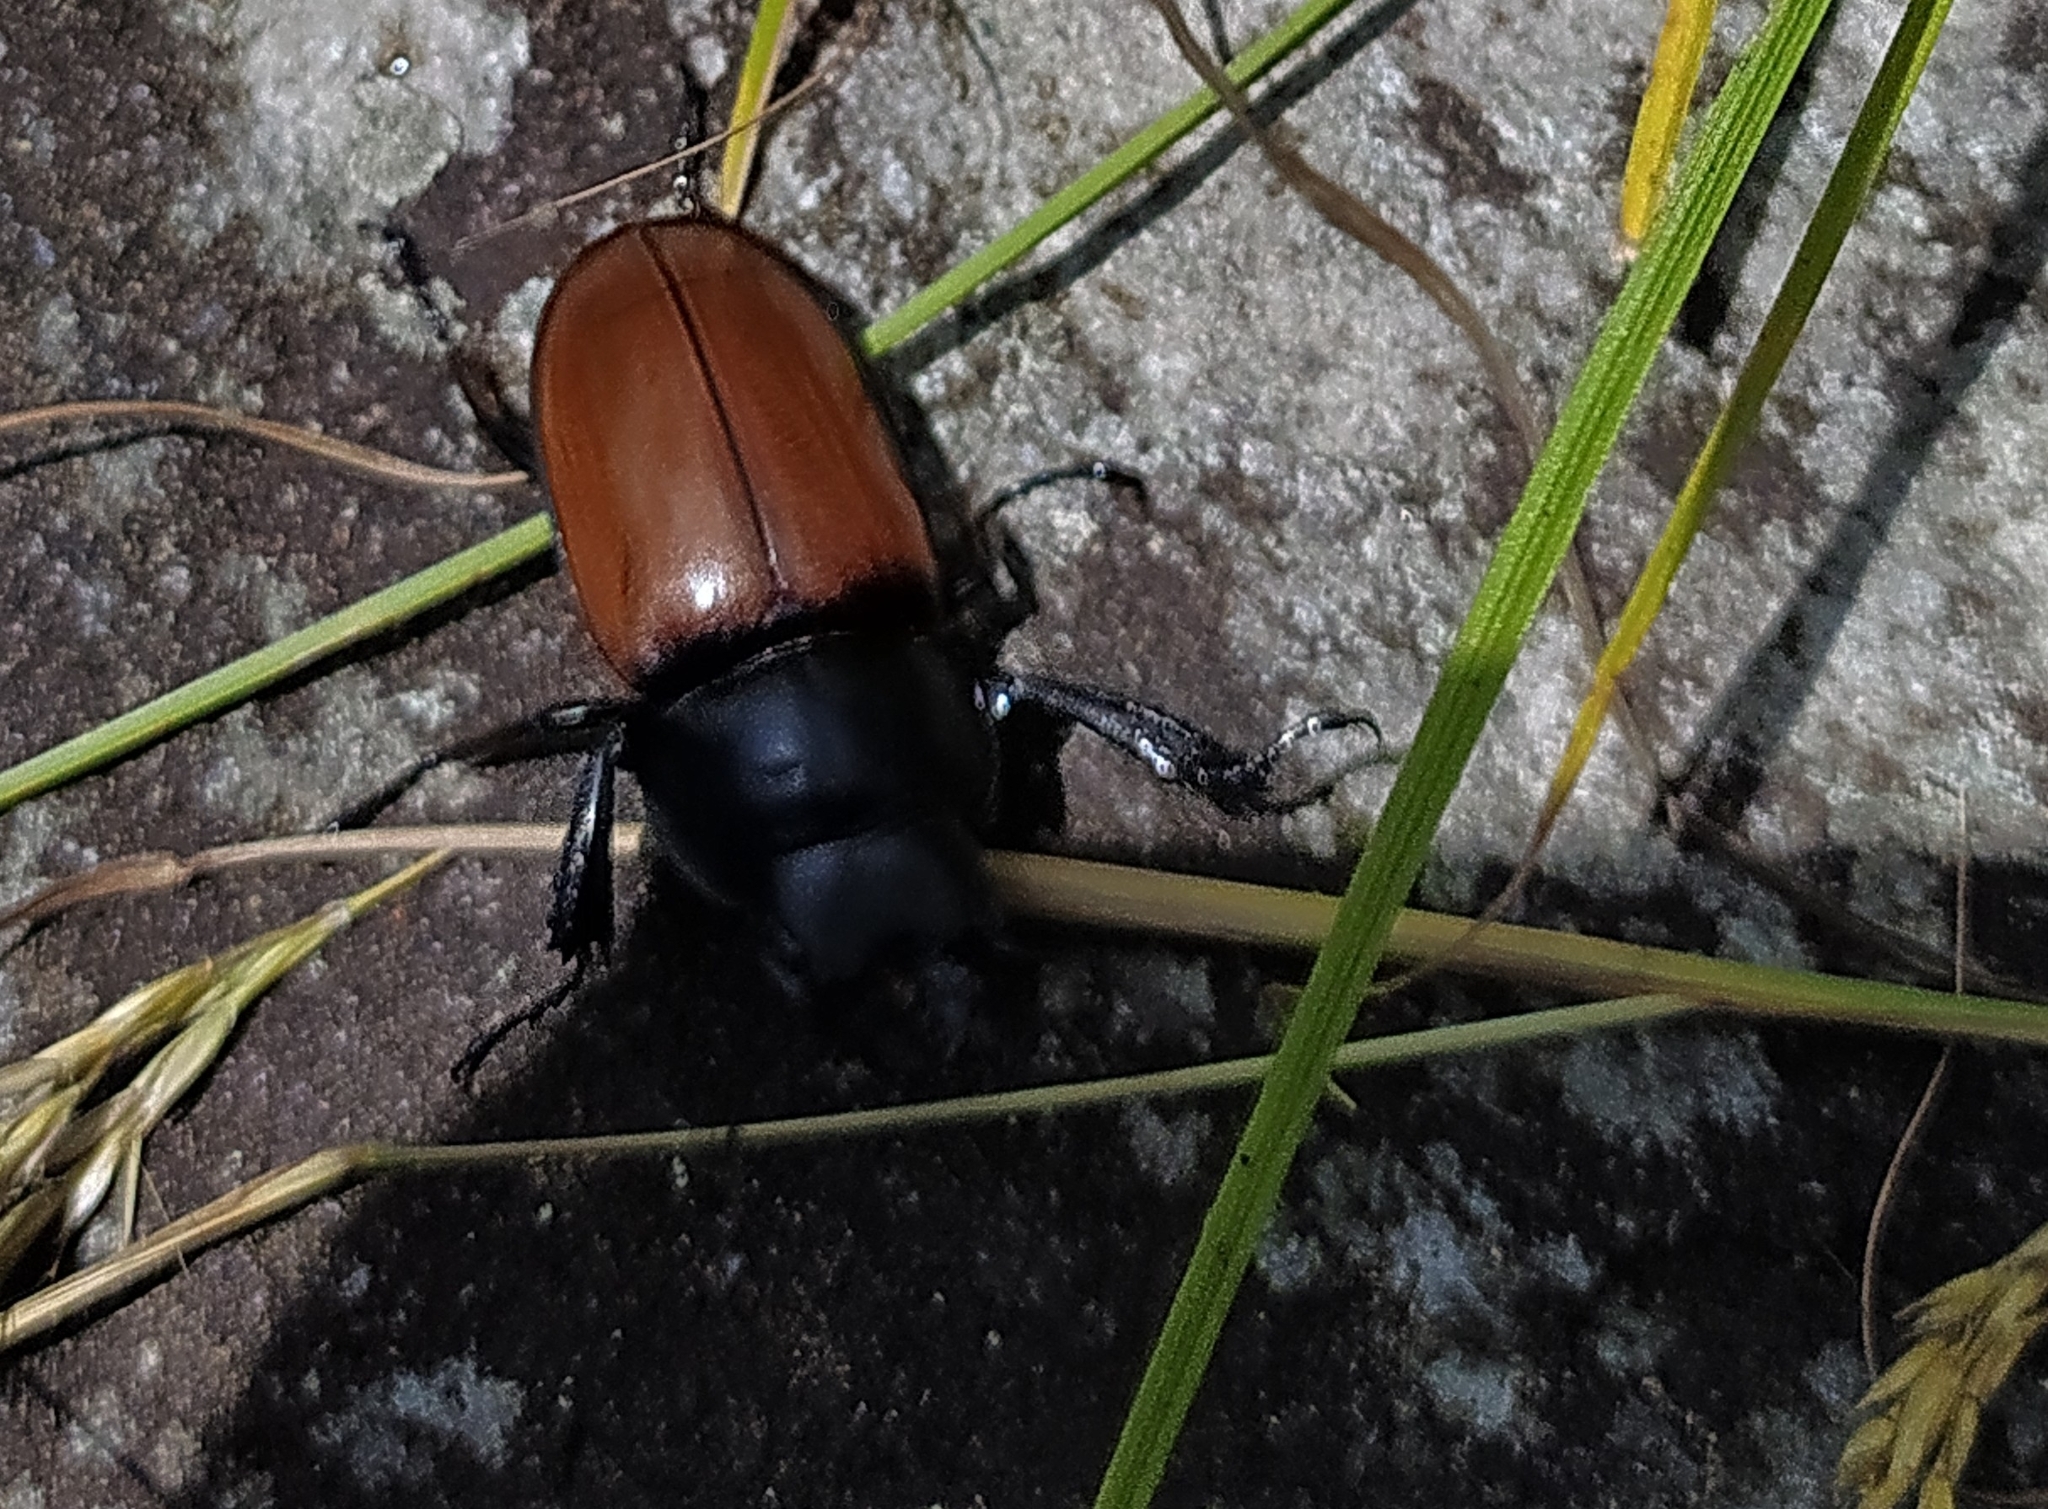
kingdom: Animalia
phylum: Arthropoda
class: Insecta
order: Coleoptera
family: Lucanidae
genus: Neolucanus
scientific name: Neolucanus castanopterus
